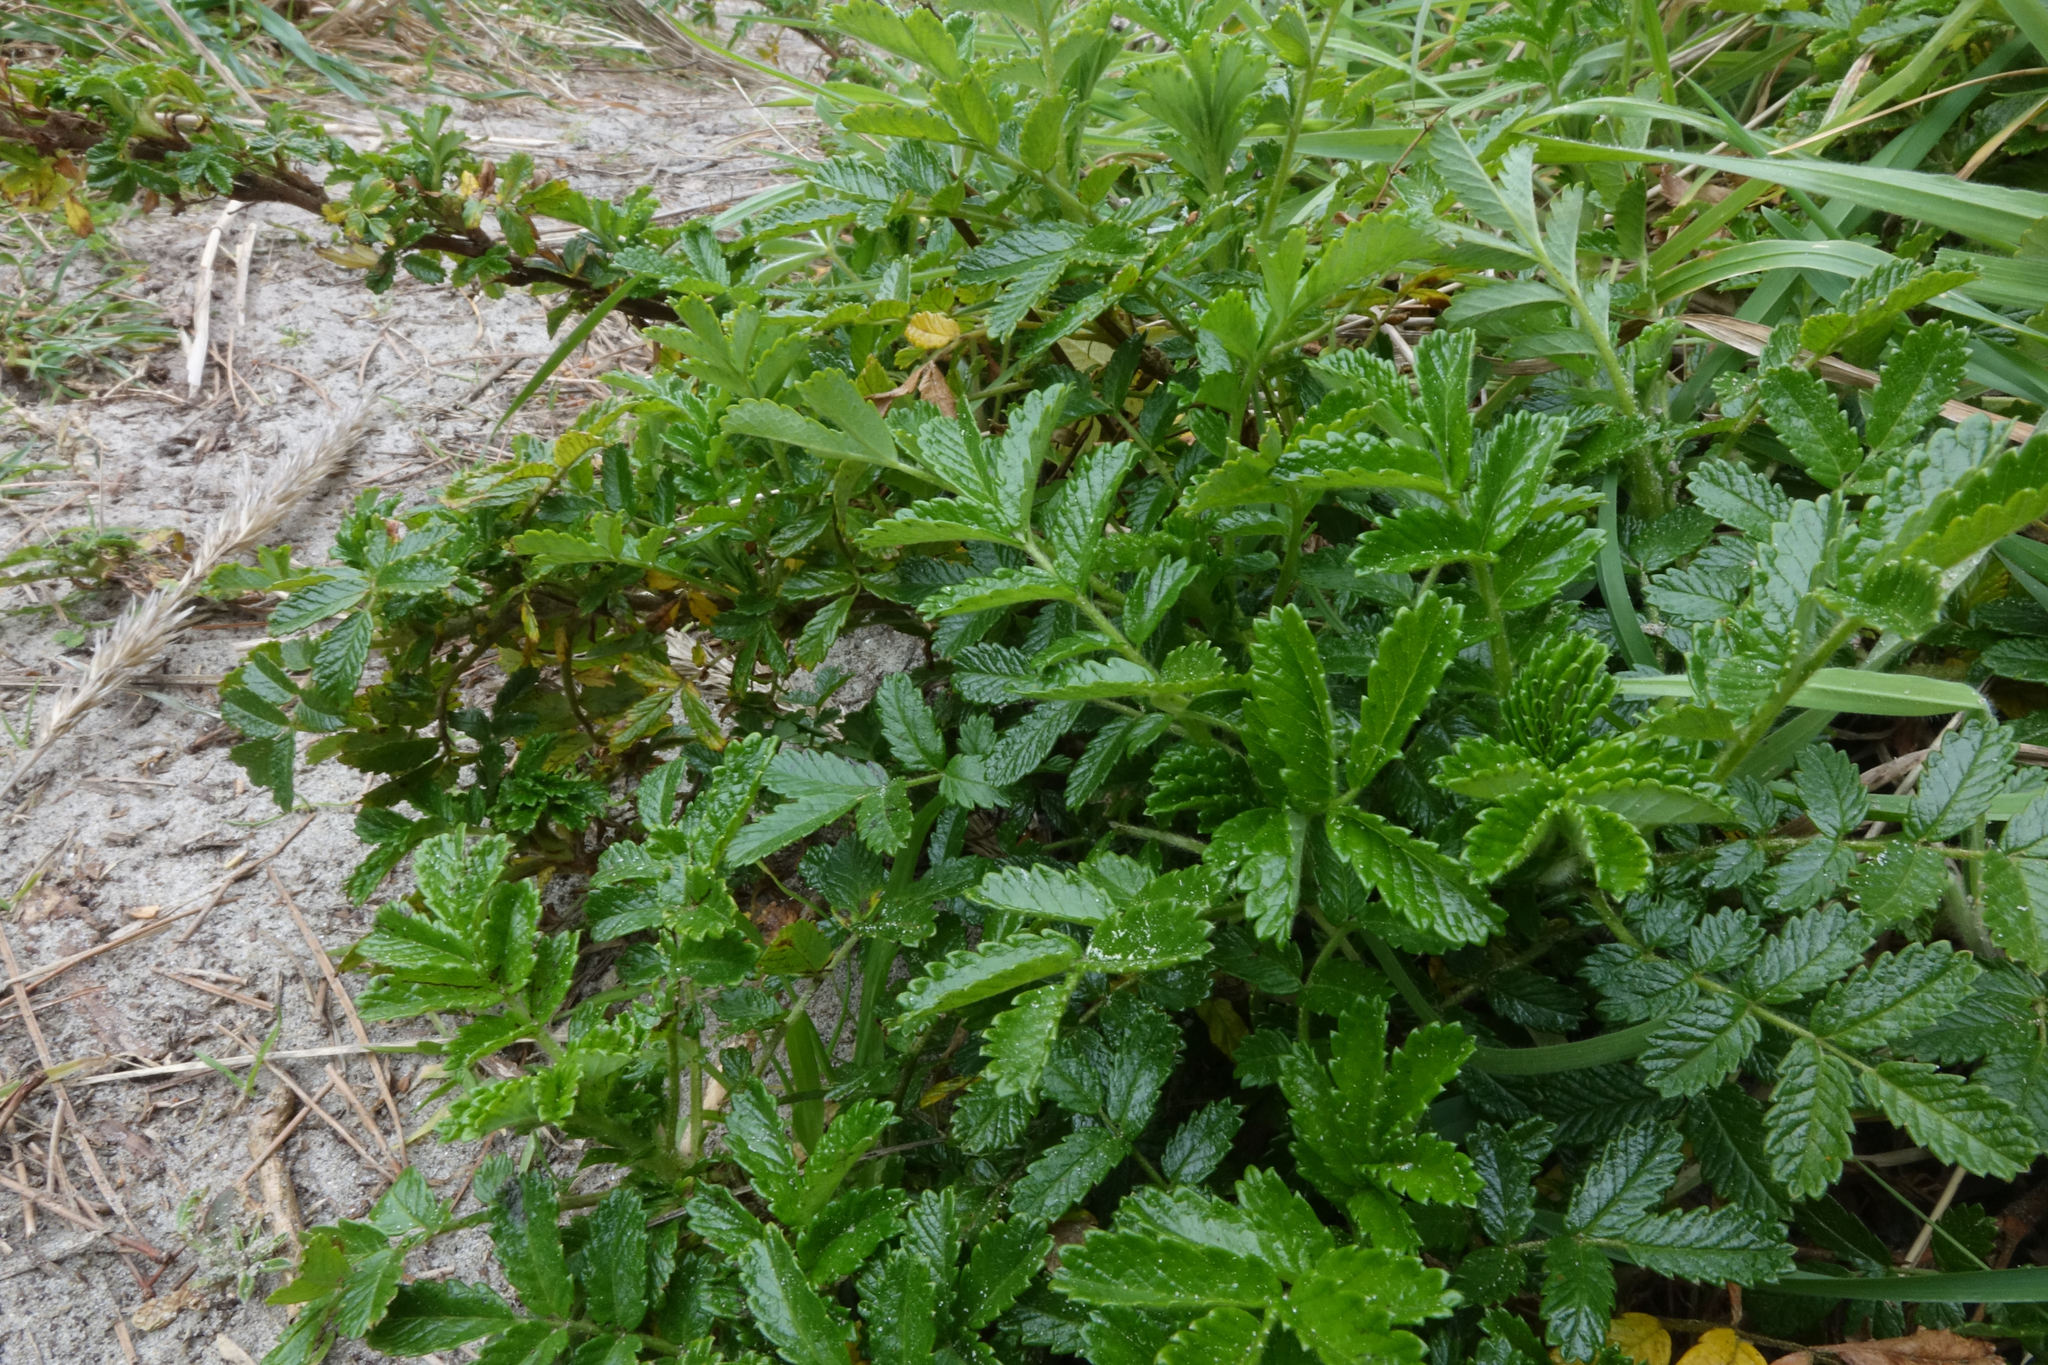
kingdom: Plantae
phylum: Tracheophyta
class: Magnoliopsida
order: Rosales
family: Rosaceae
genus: Acaena
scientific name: Acaena pallida
